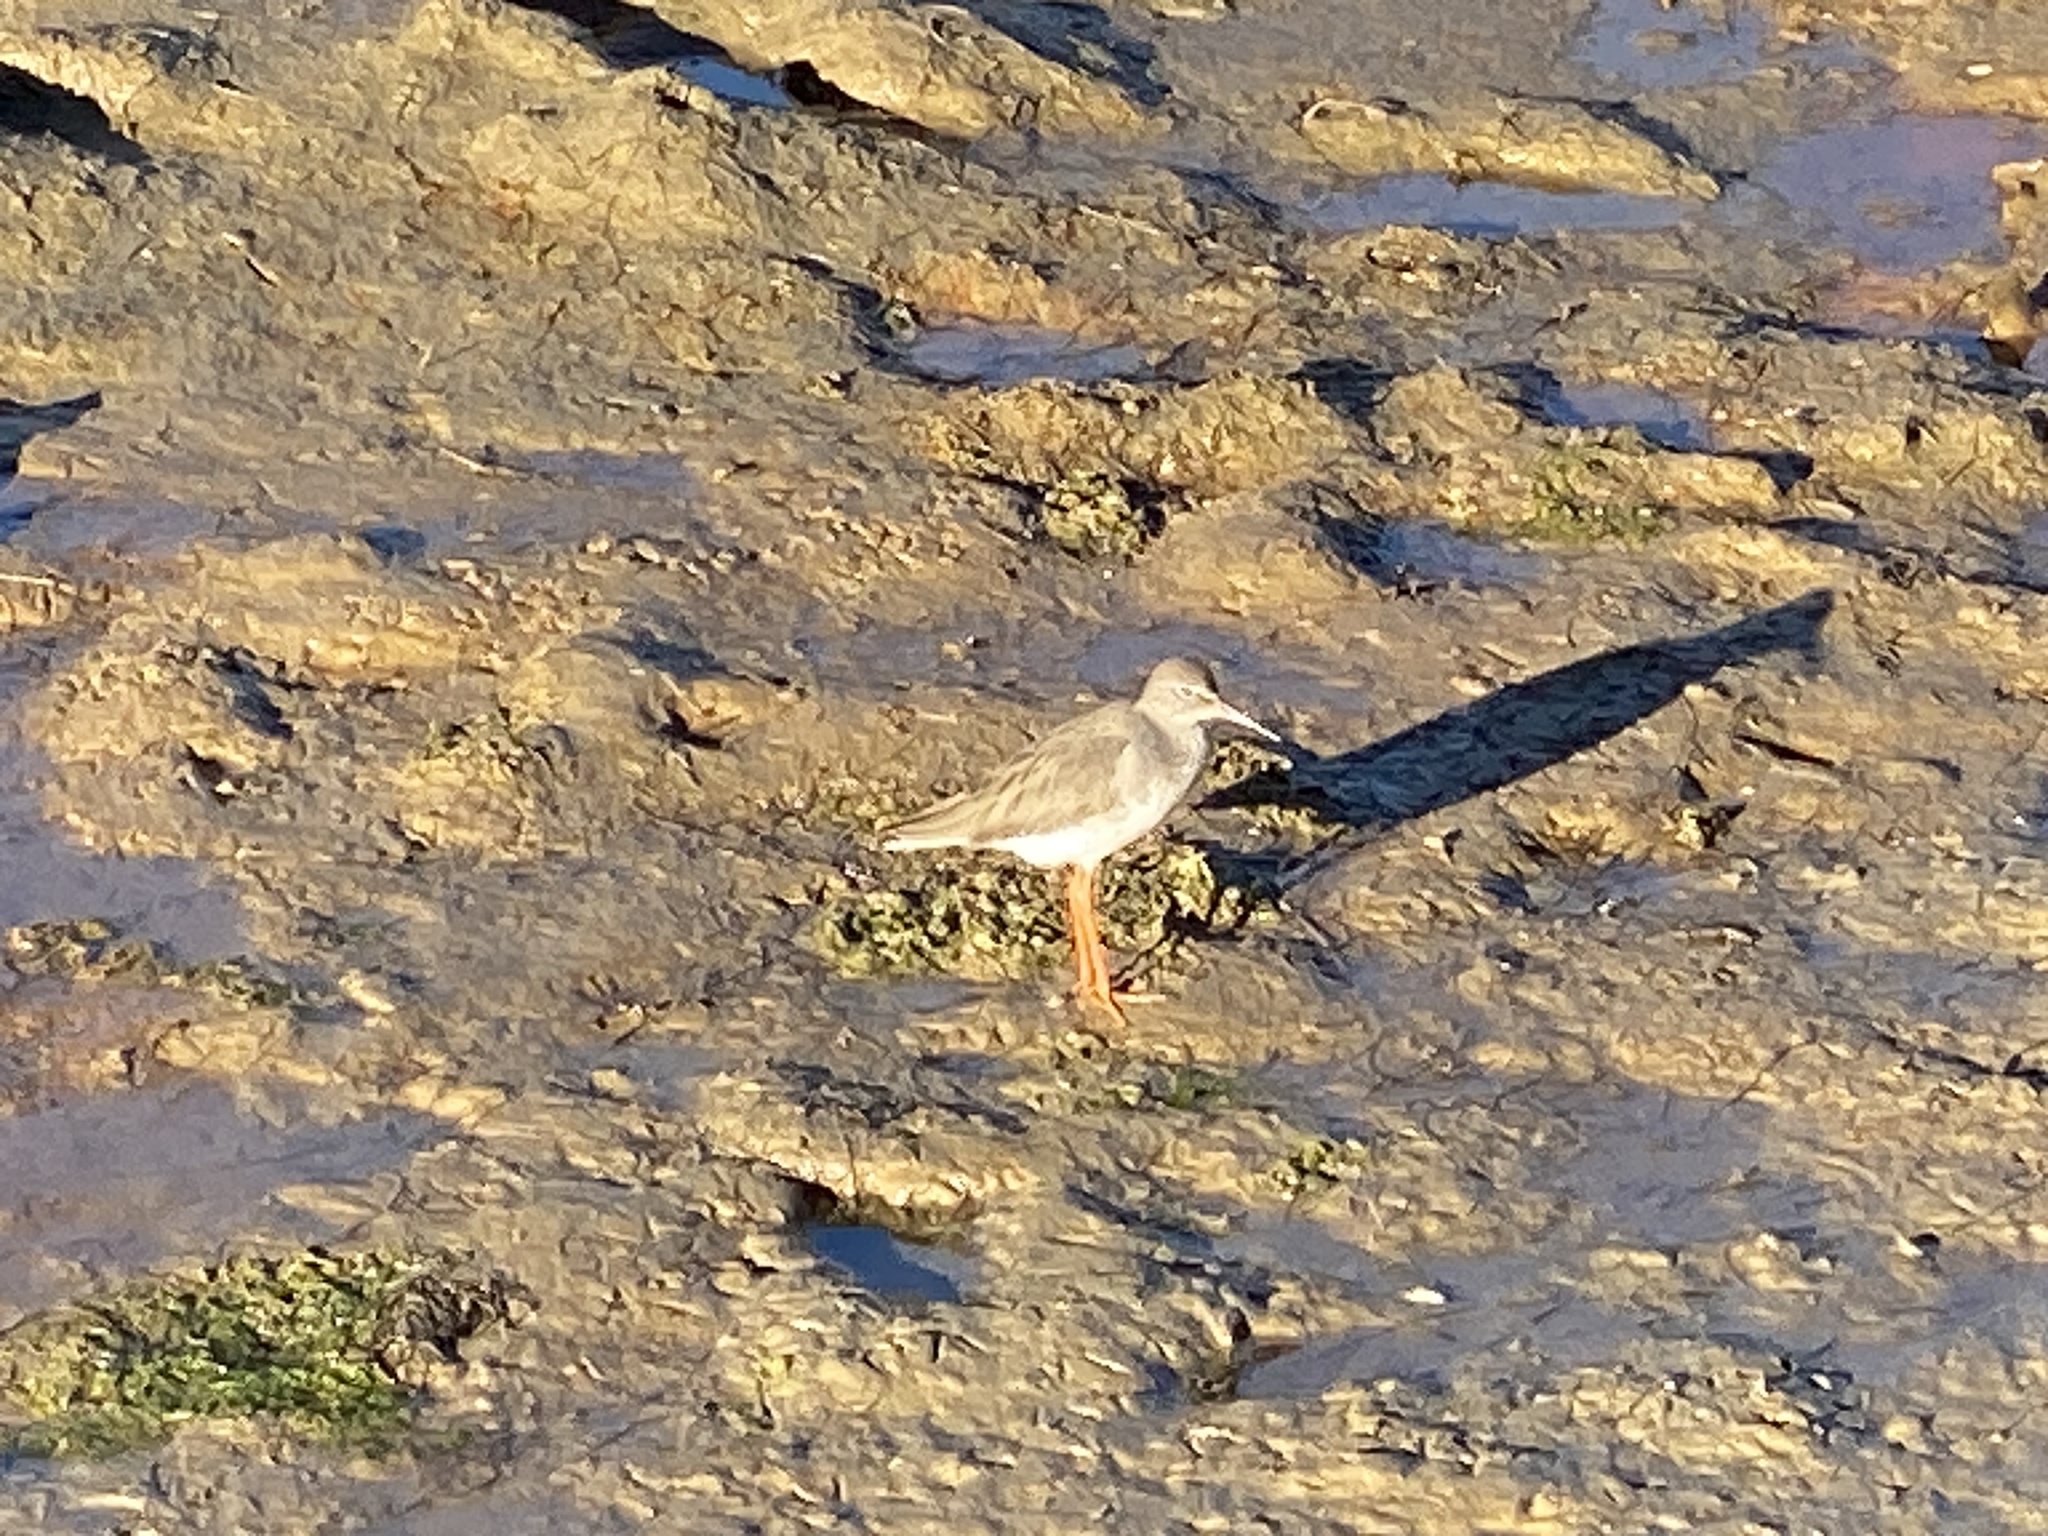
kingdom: Animalia
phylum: Chordata
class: Aves
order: Charadriiformes
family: Scolopacidae
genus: Tringa
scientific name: Tringa totanus
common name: Common redshank
